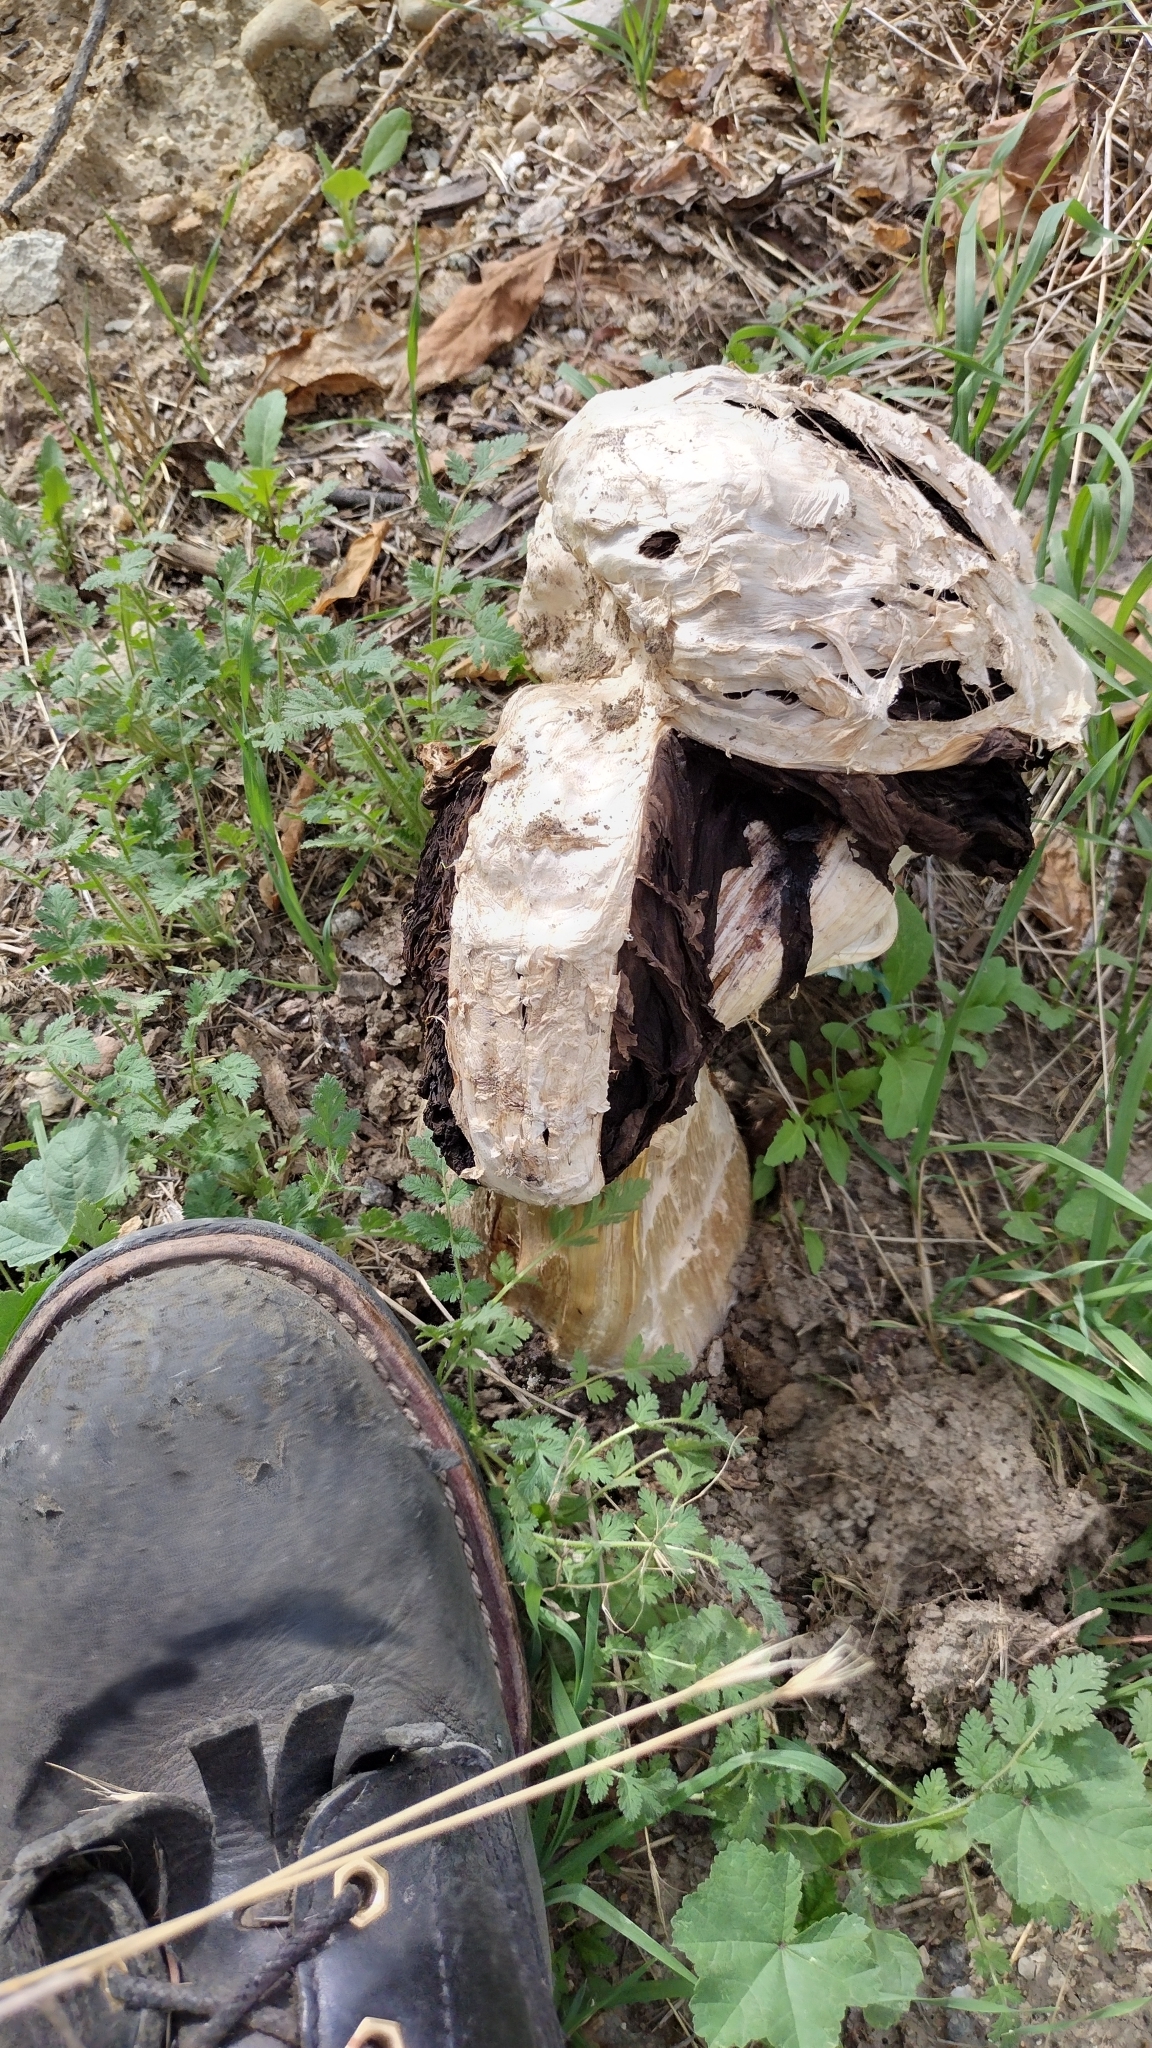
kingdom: Fungi
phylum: Basidiomycota
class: Agaricomycetes
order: Agaricales
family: Agaricaceae
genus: Agaricus
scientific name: Agaricus deserticola
